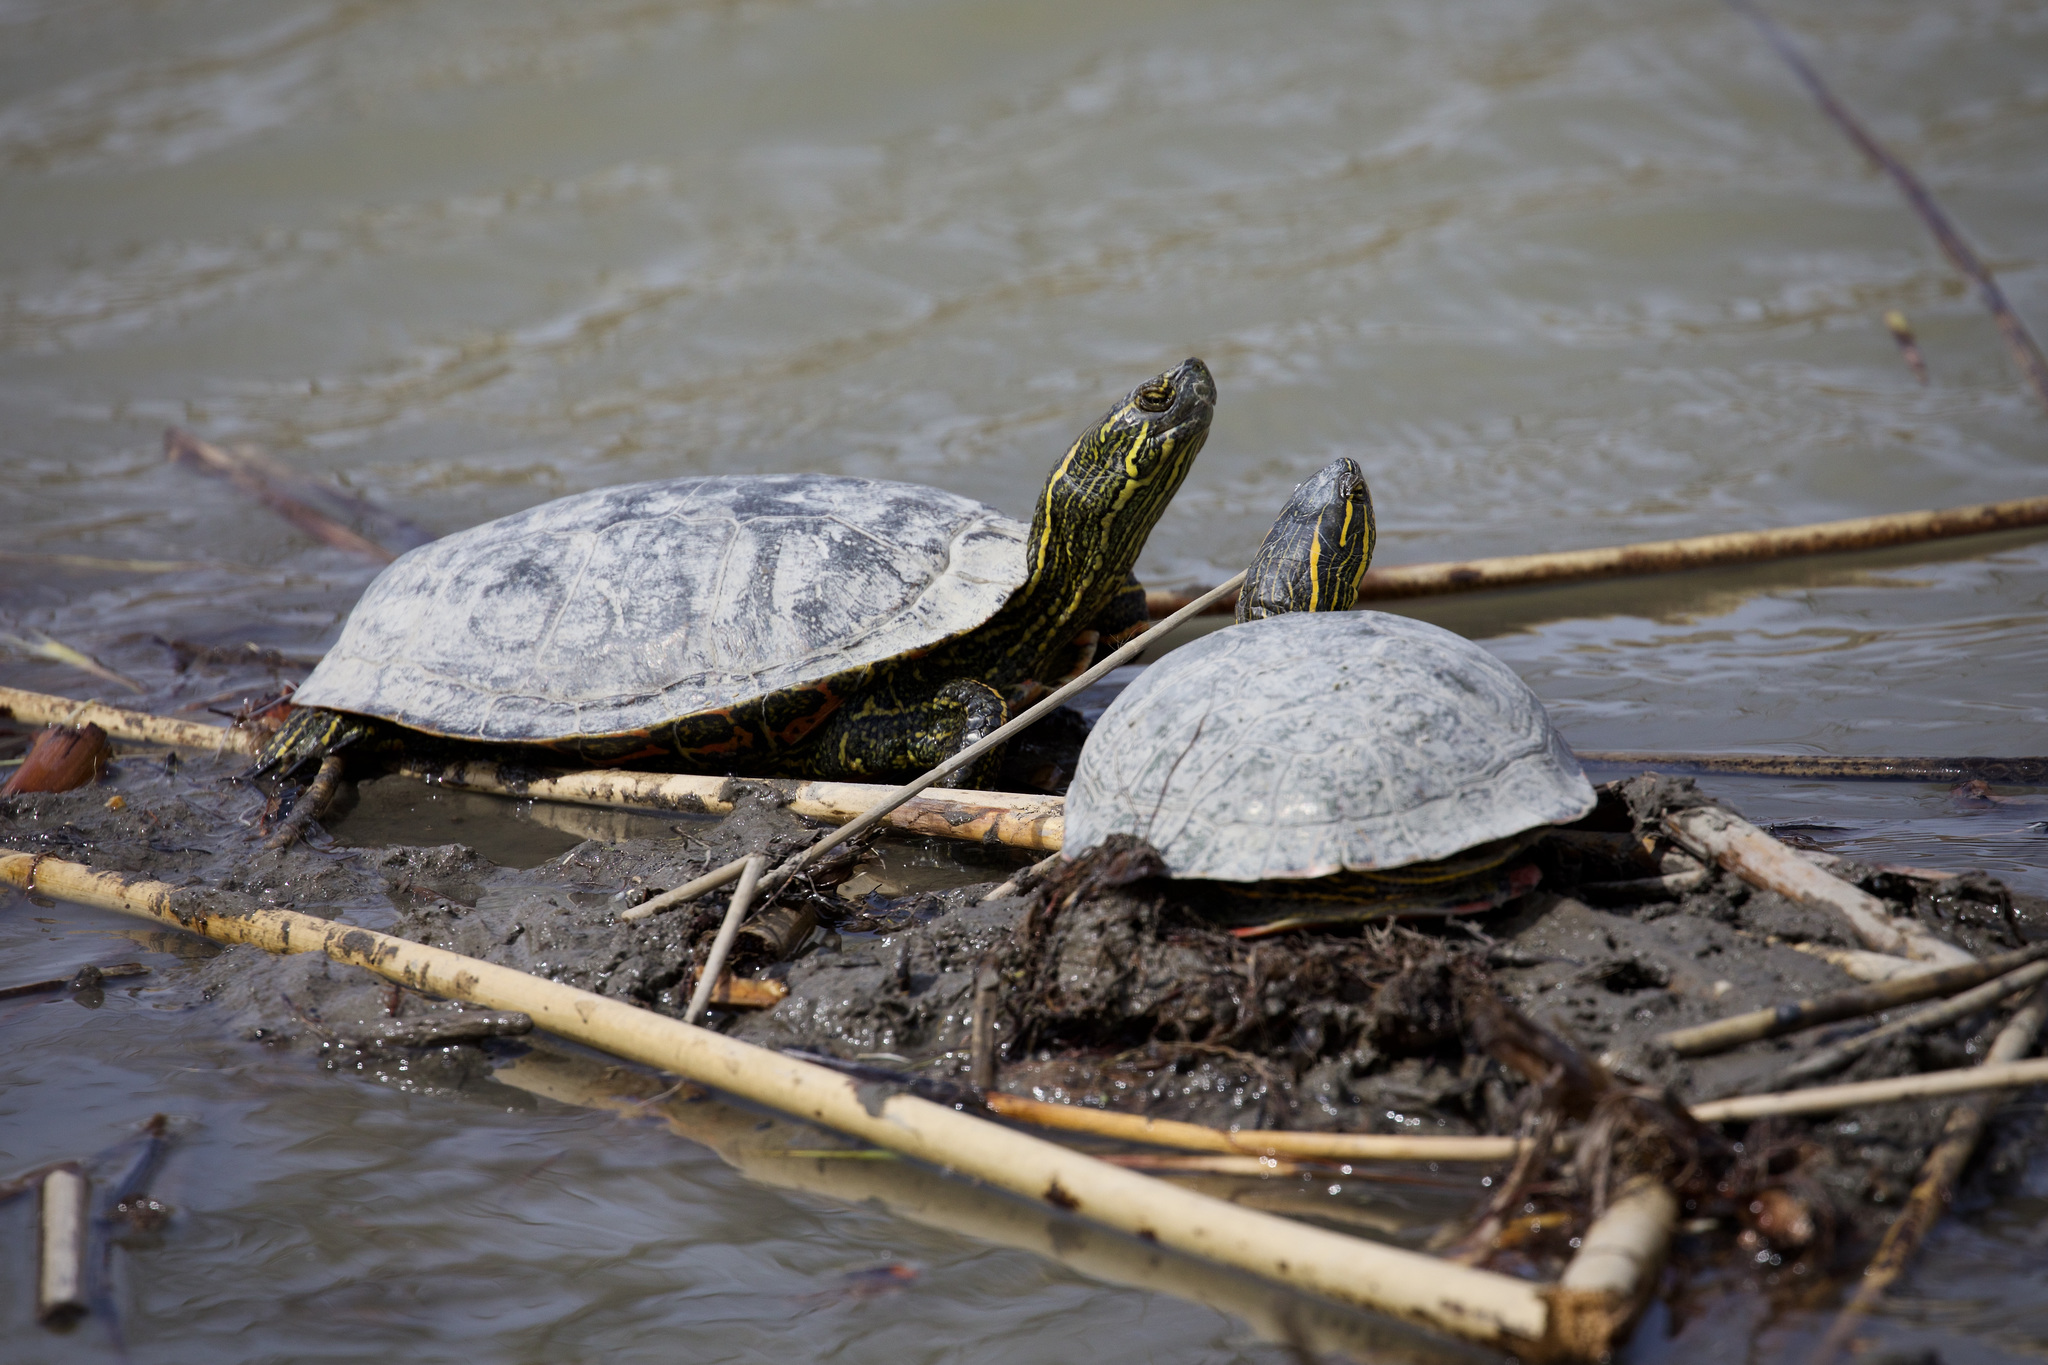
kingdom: Animalia
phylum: Chordata
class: Testudines
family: Emydidae
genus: Chrysemys
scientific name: Chrysemys picta
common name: Painted turtle
